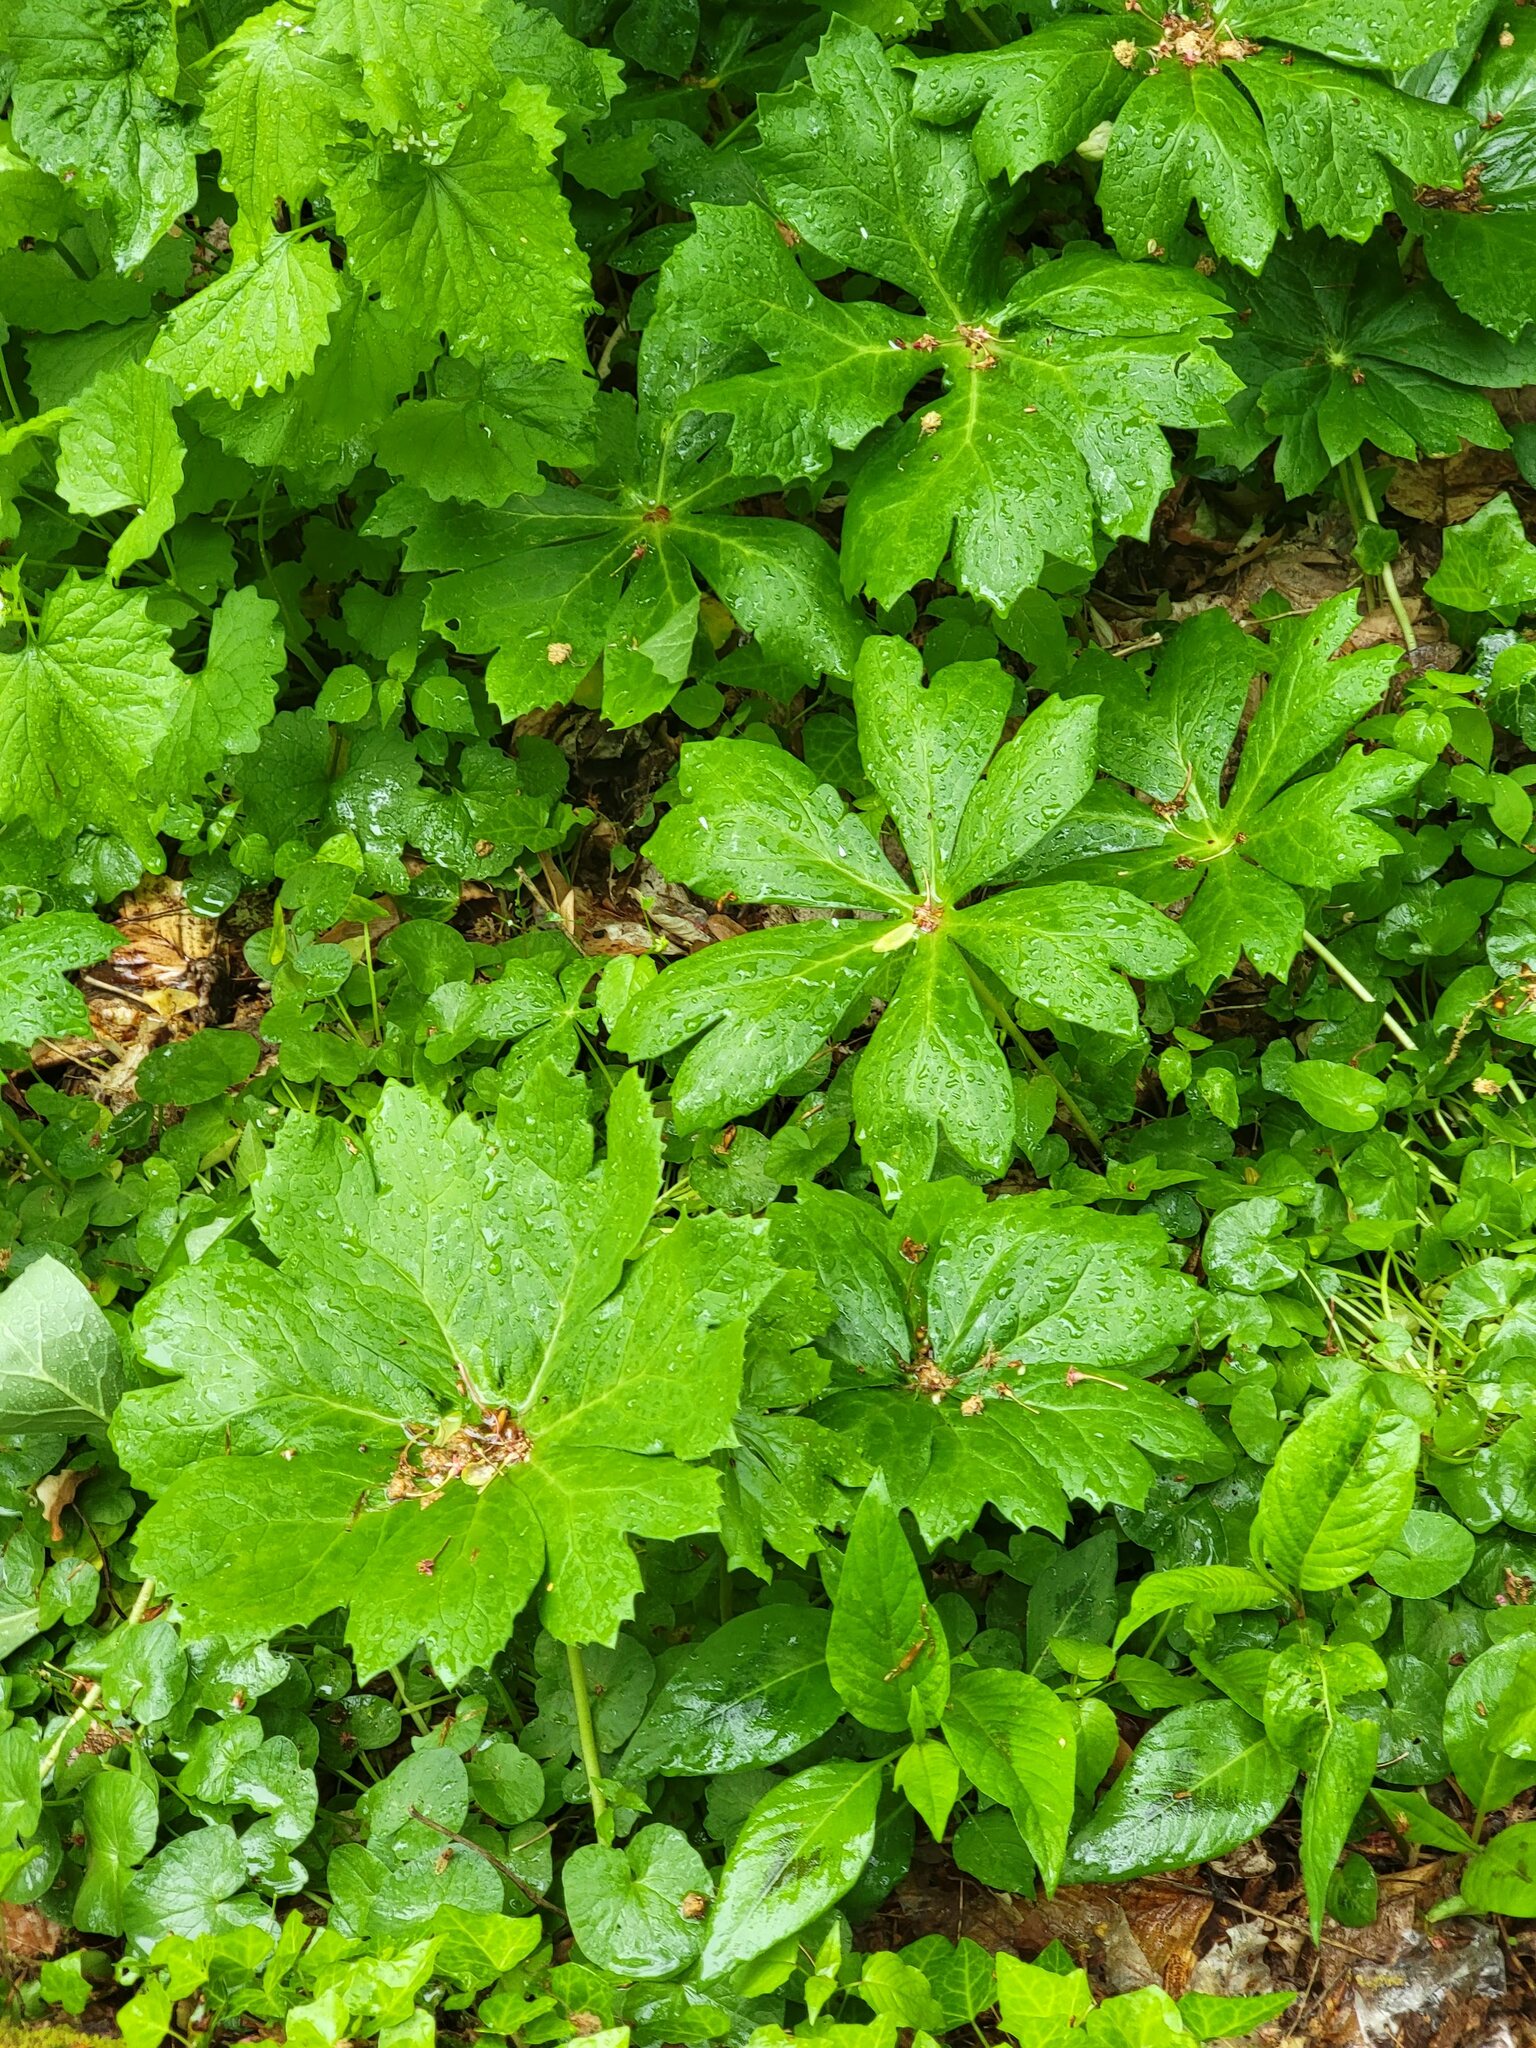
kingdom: Plantae
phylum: Tracheophyta
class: Magnoliopsida
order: Ranunculales
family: Berberidaceae
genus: Podophyllum
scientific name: Podophyllum peltatum
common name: Wild mandrake
